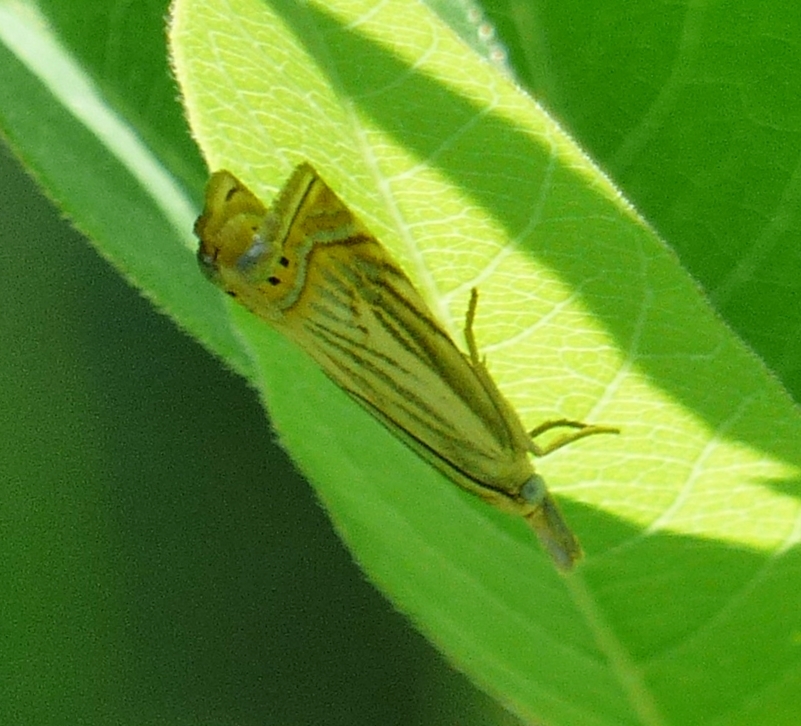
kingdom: Animalia
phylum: Arthropoda
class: Insecta
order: Lepidoptera
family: Crambidae
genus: Chrysoteuchia
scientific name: Chrysoteuchia topiarius
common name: Topiary grass-veneer
